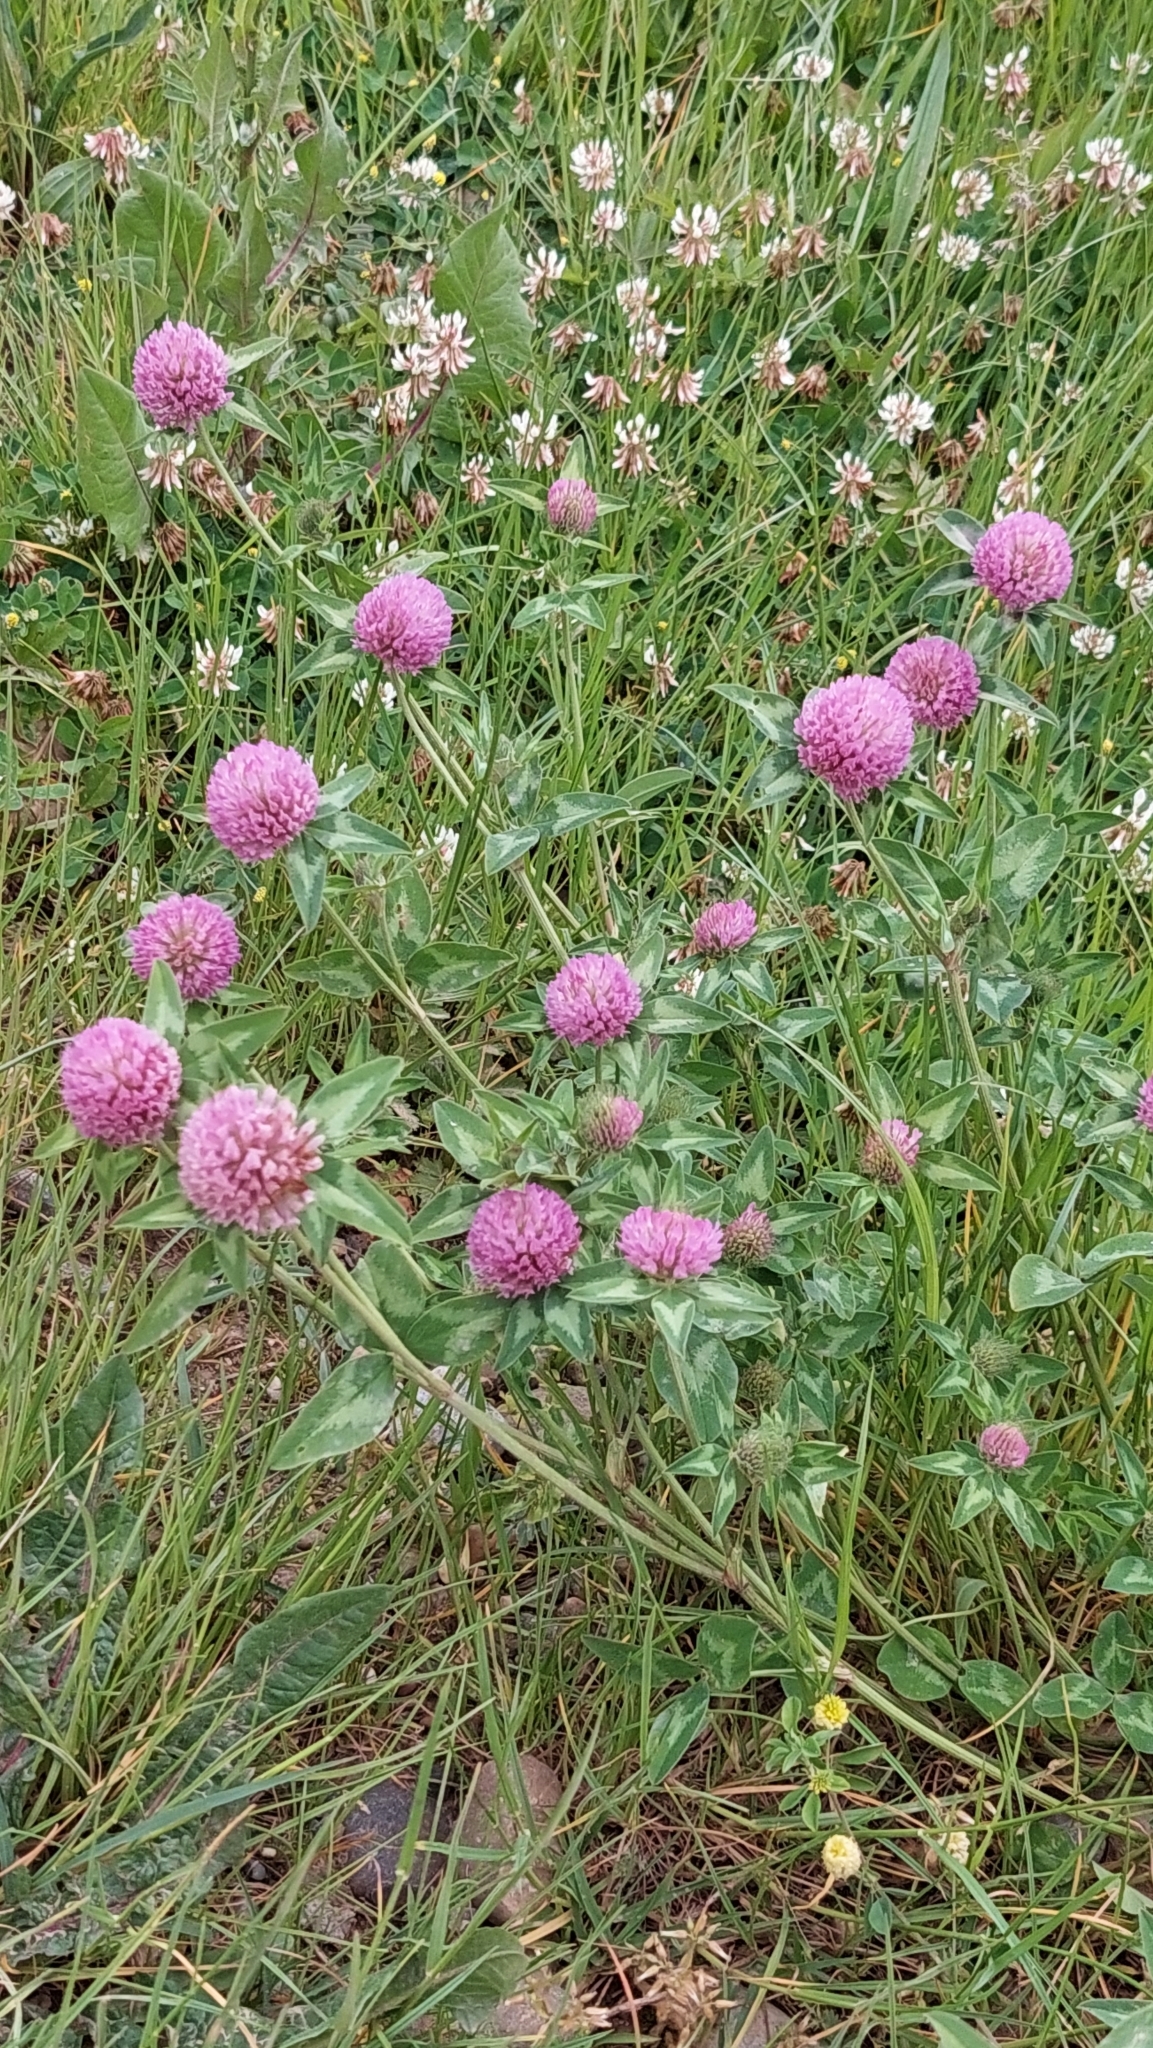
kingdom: Plantae
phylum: Tracheophyta
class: Magnoliopsida
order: Fabales
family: Fabaceae
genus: Trifolium
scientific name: Trifolium pratense
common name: Red clover
